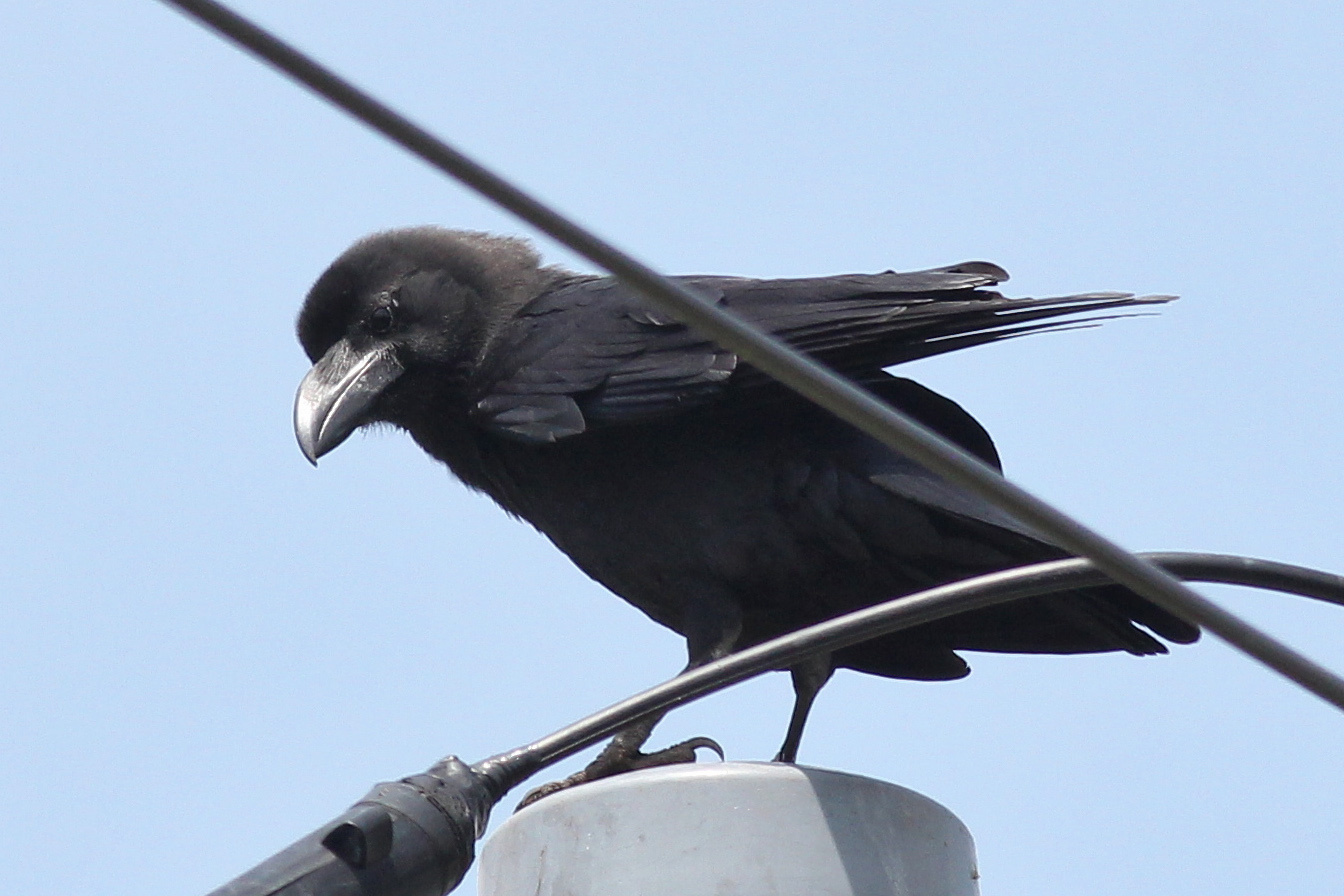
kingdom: Animalia
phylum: Chordata
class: Aves
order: Passeriformes
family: Corvidae
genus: Corvus
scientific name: Corvus macrorhynchos
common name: Large-billed crow
